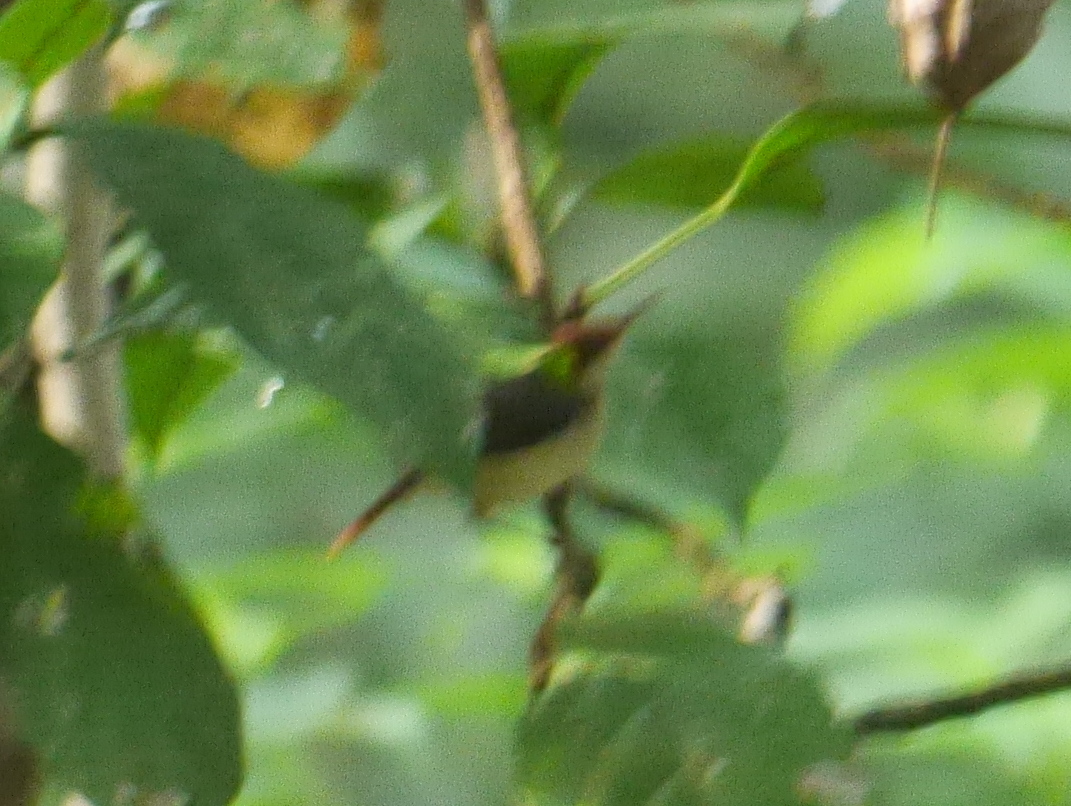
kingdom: Animalia
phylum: Chordata
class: Aves
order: Passeriformes
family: Cisticolidae
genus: Orthotomus
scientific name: Orthotomus sericeus
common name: Rufous-tailed tailorbird
